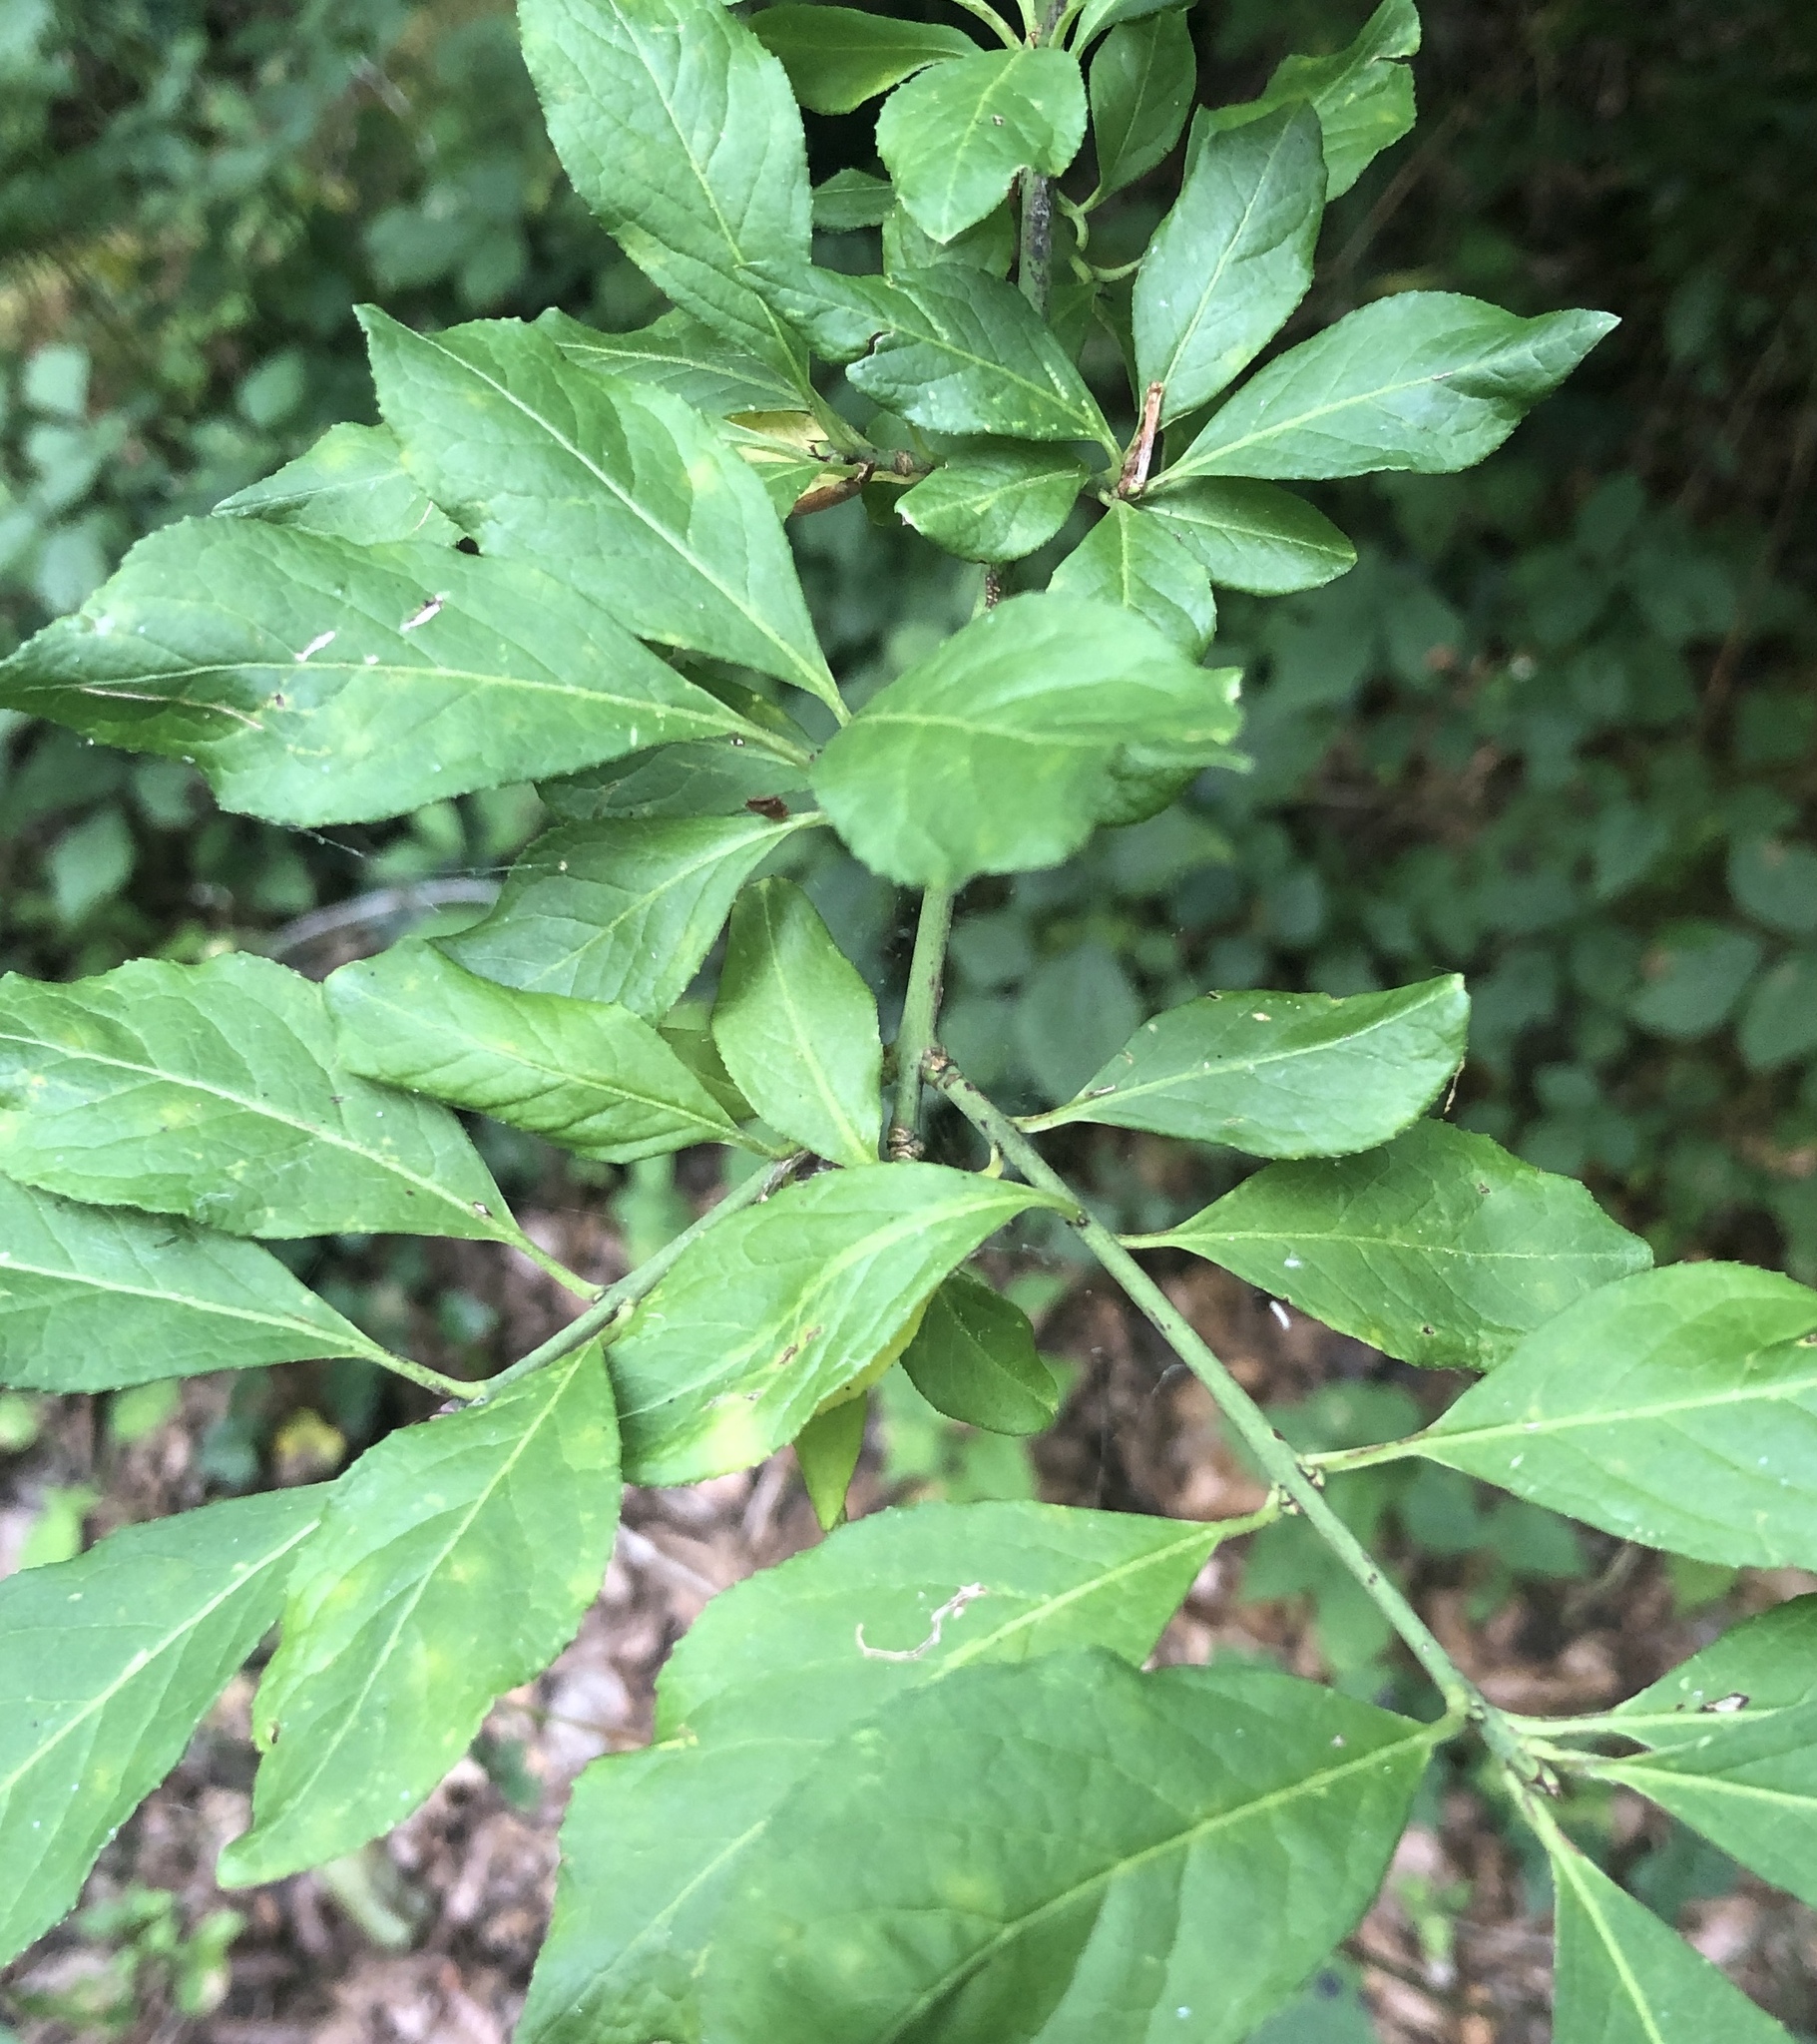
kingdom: Plantae
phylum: Tracheophyta
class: Magnoliopsida
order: Celastrales
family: Celastraceae
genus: Euonymus
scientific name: Euonymus europaeus
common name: Spindle
